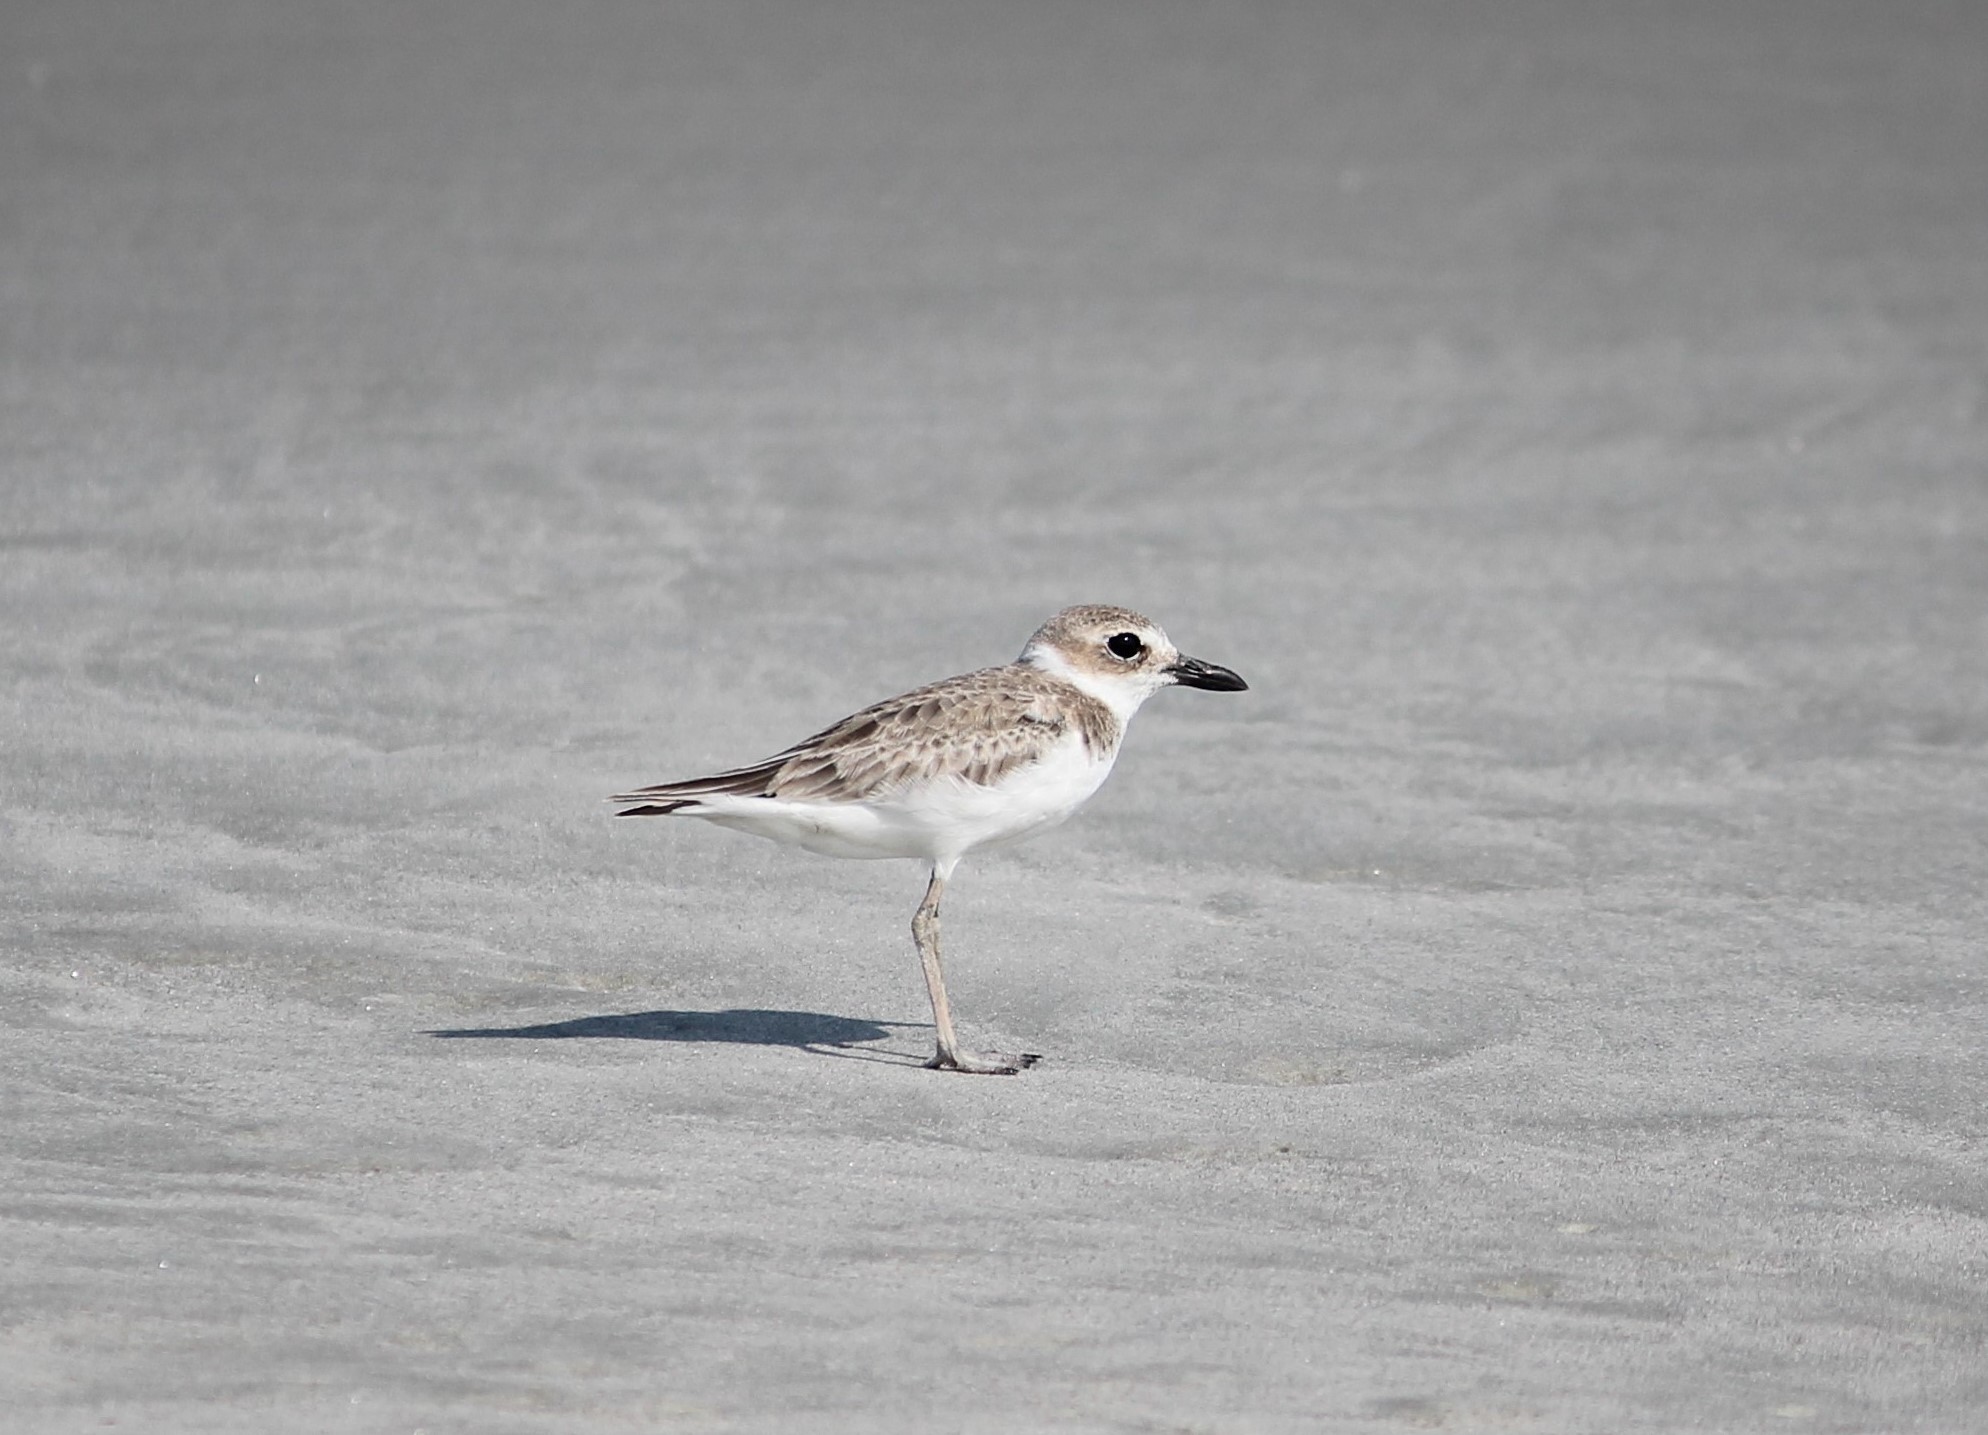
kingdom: Animalia
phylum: Chordata
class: Aves
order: Charadriiformes
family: Charadriidae
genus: Anarhynchus
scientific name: Anarhynchus
